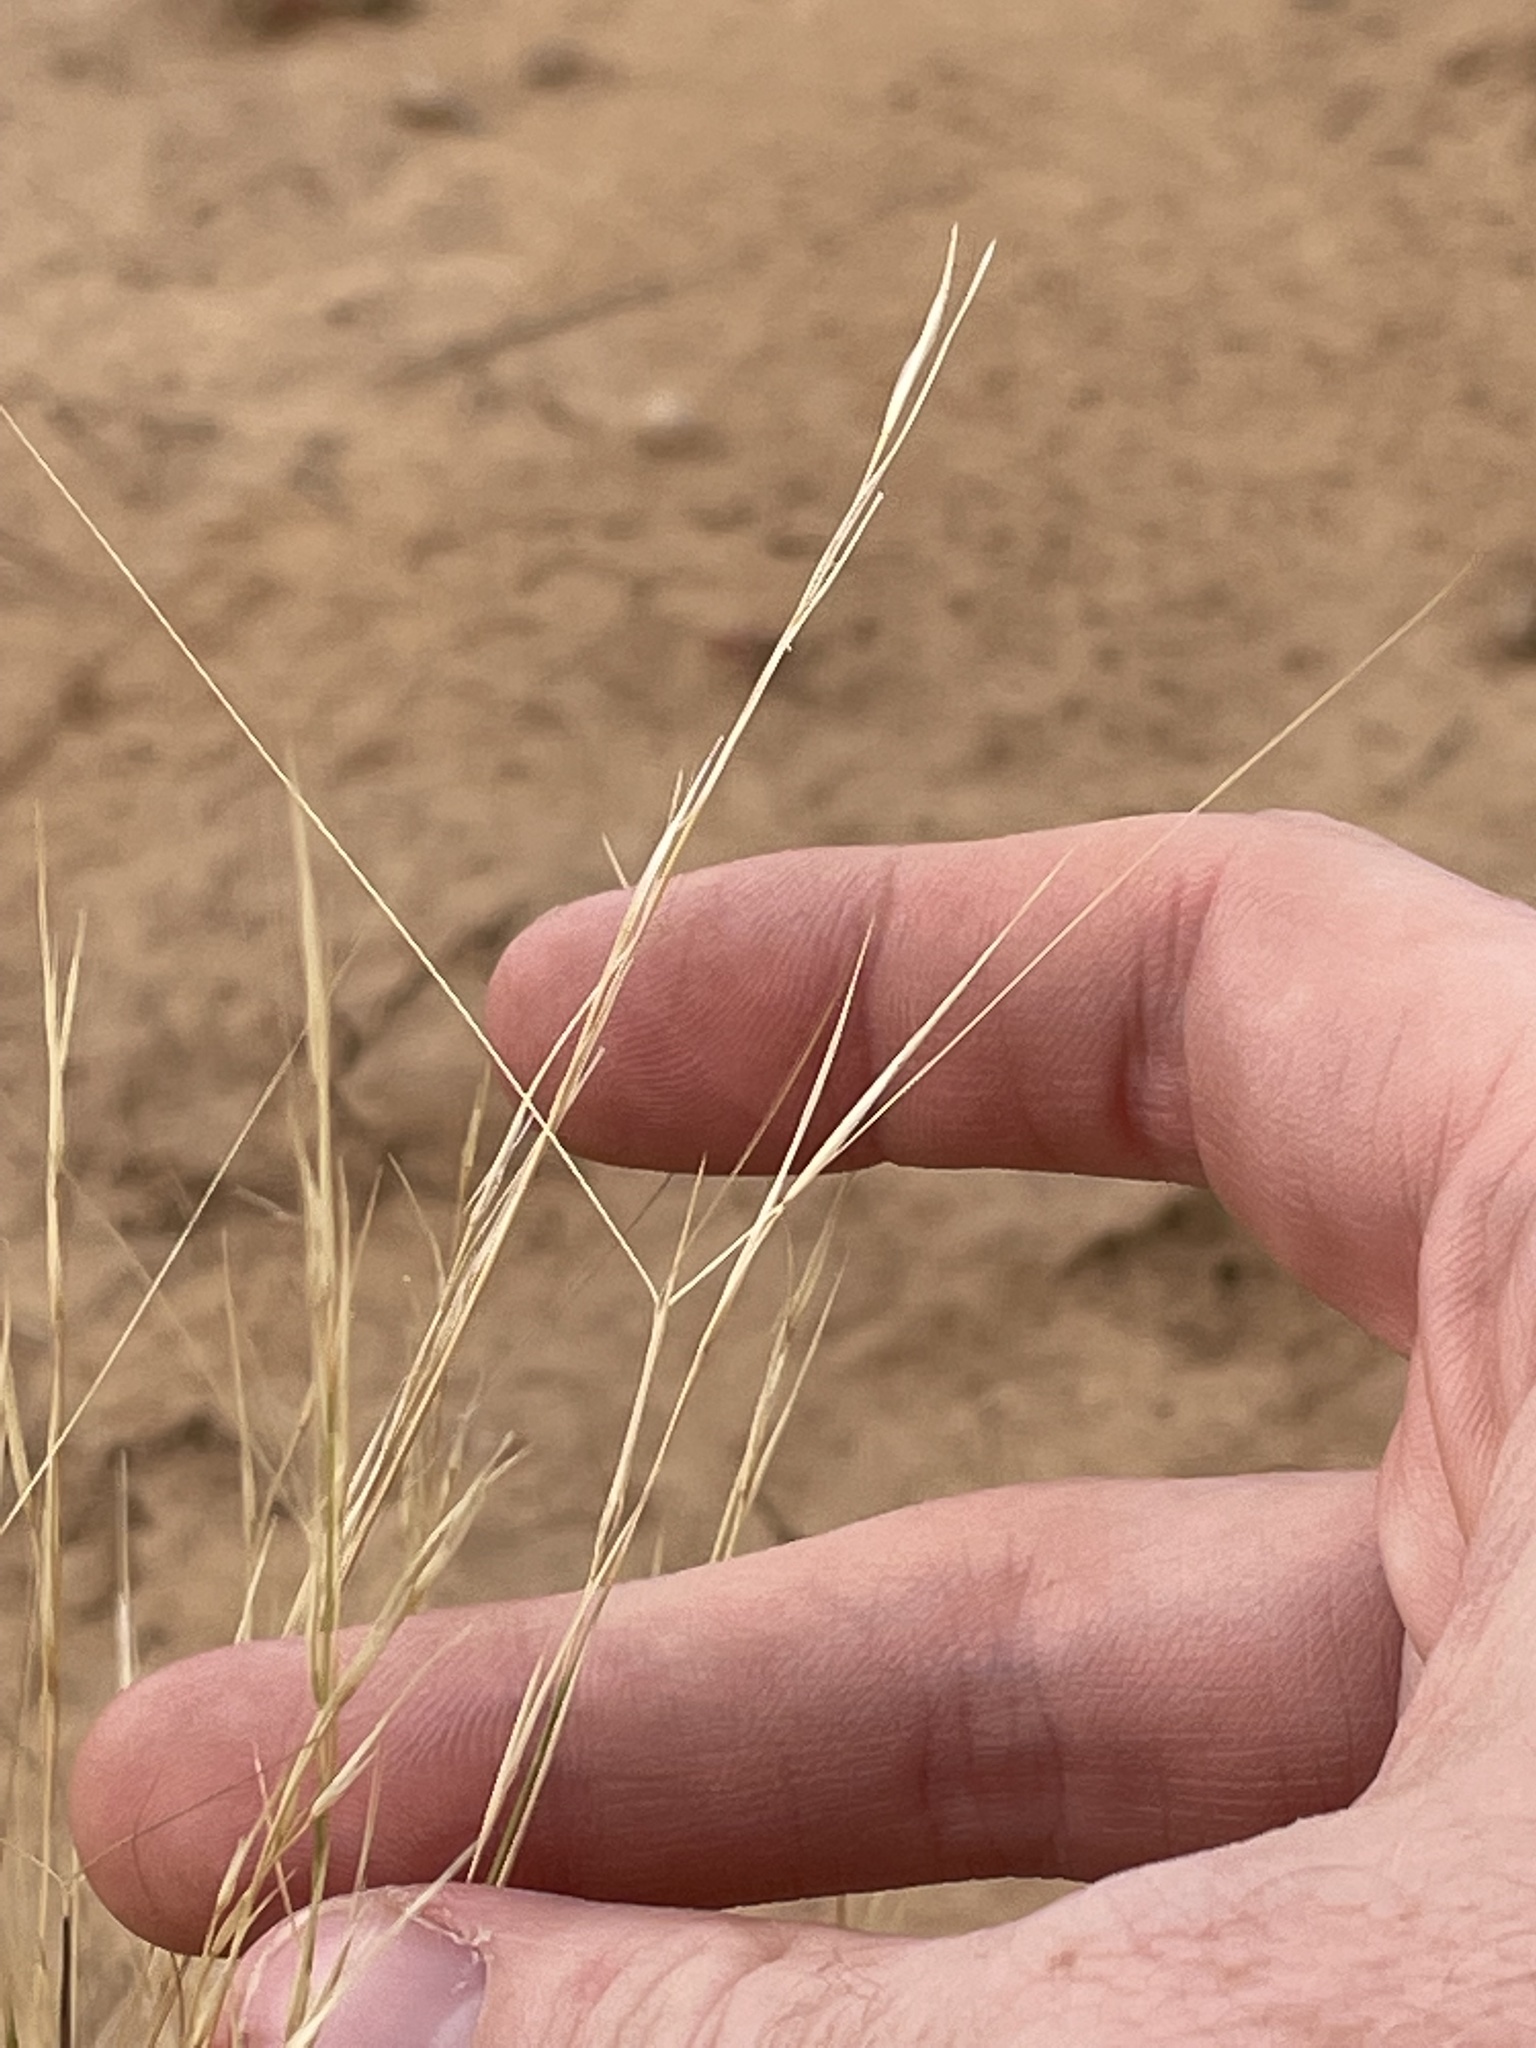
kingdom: Plantae
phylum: Tracheophyta
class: Liliopsida
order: Poales
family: Poaceae
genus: Aristida
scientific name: Aristida purpurea
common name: Purple threeawn
